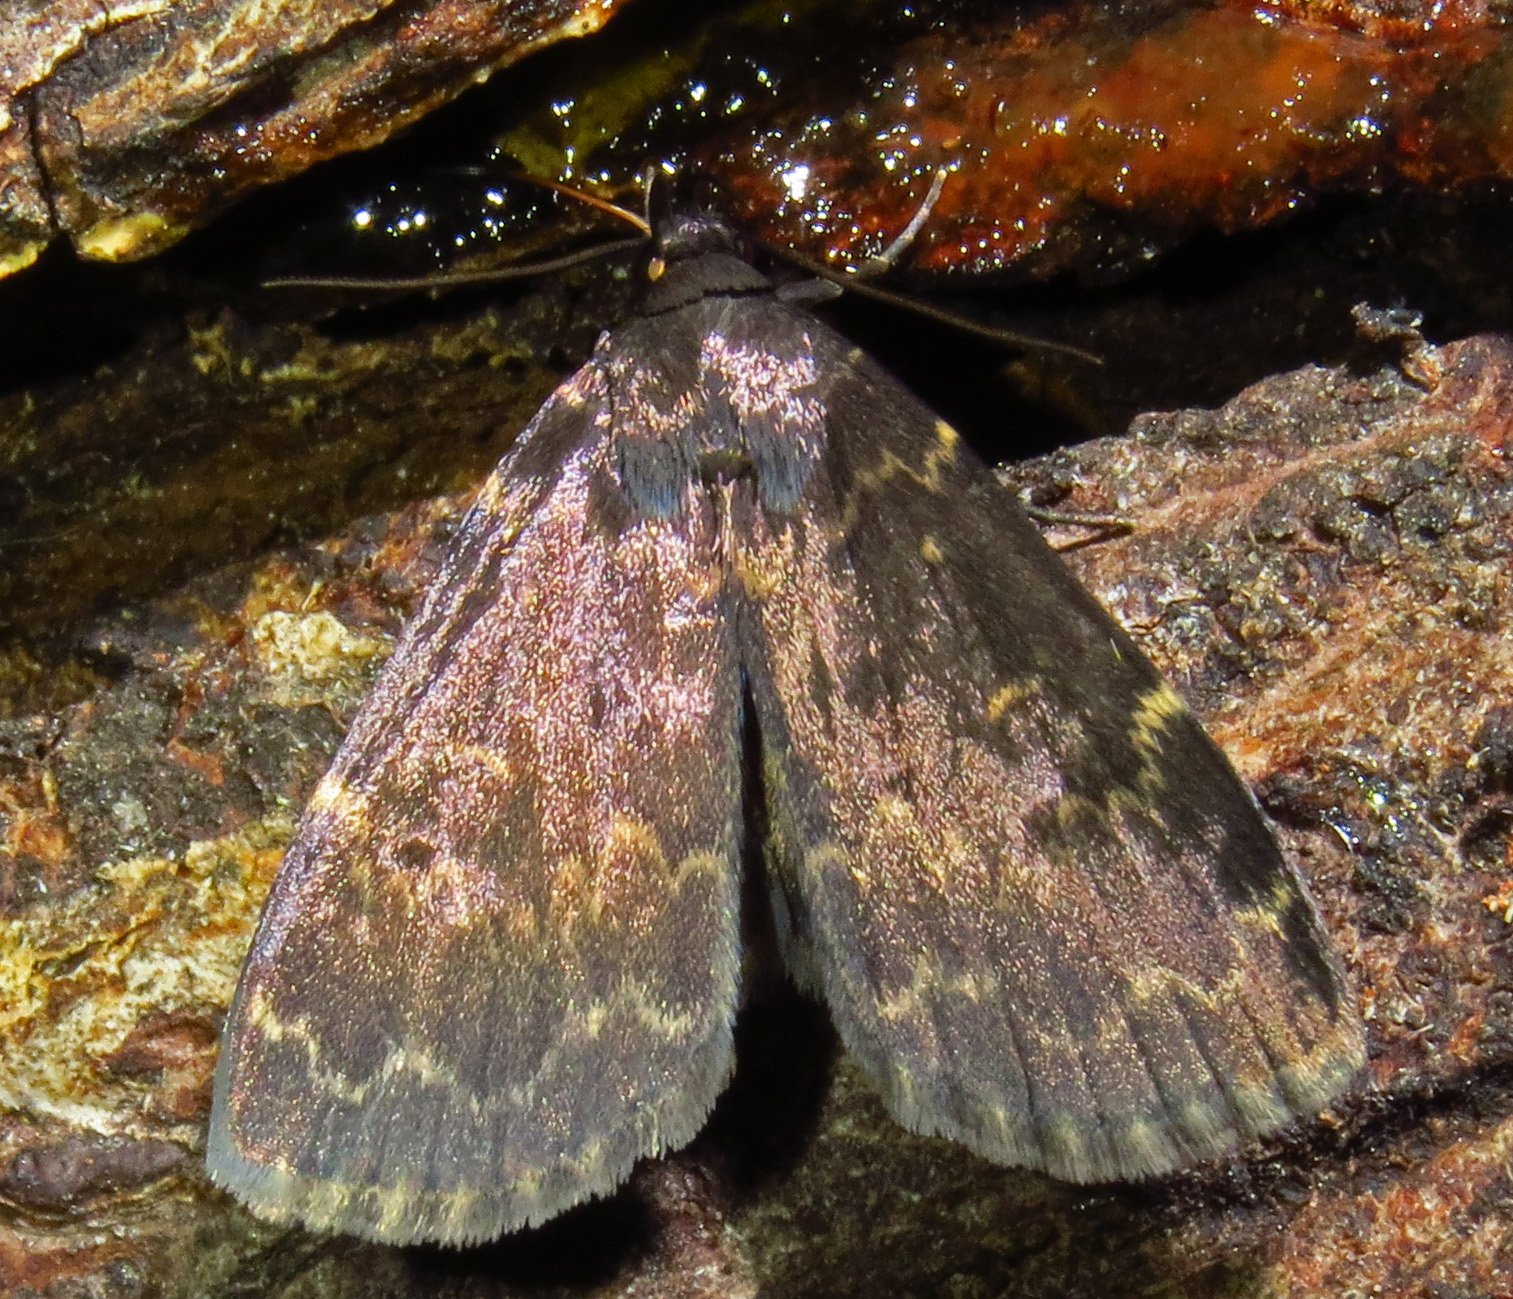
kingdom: Animalia
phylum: Arthropoda
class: Insecta
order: Lepidoptera
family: Erebidae
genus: Idia
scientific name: Idia lubricalis
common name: Twin-striped tabby
